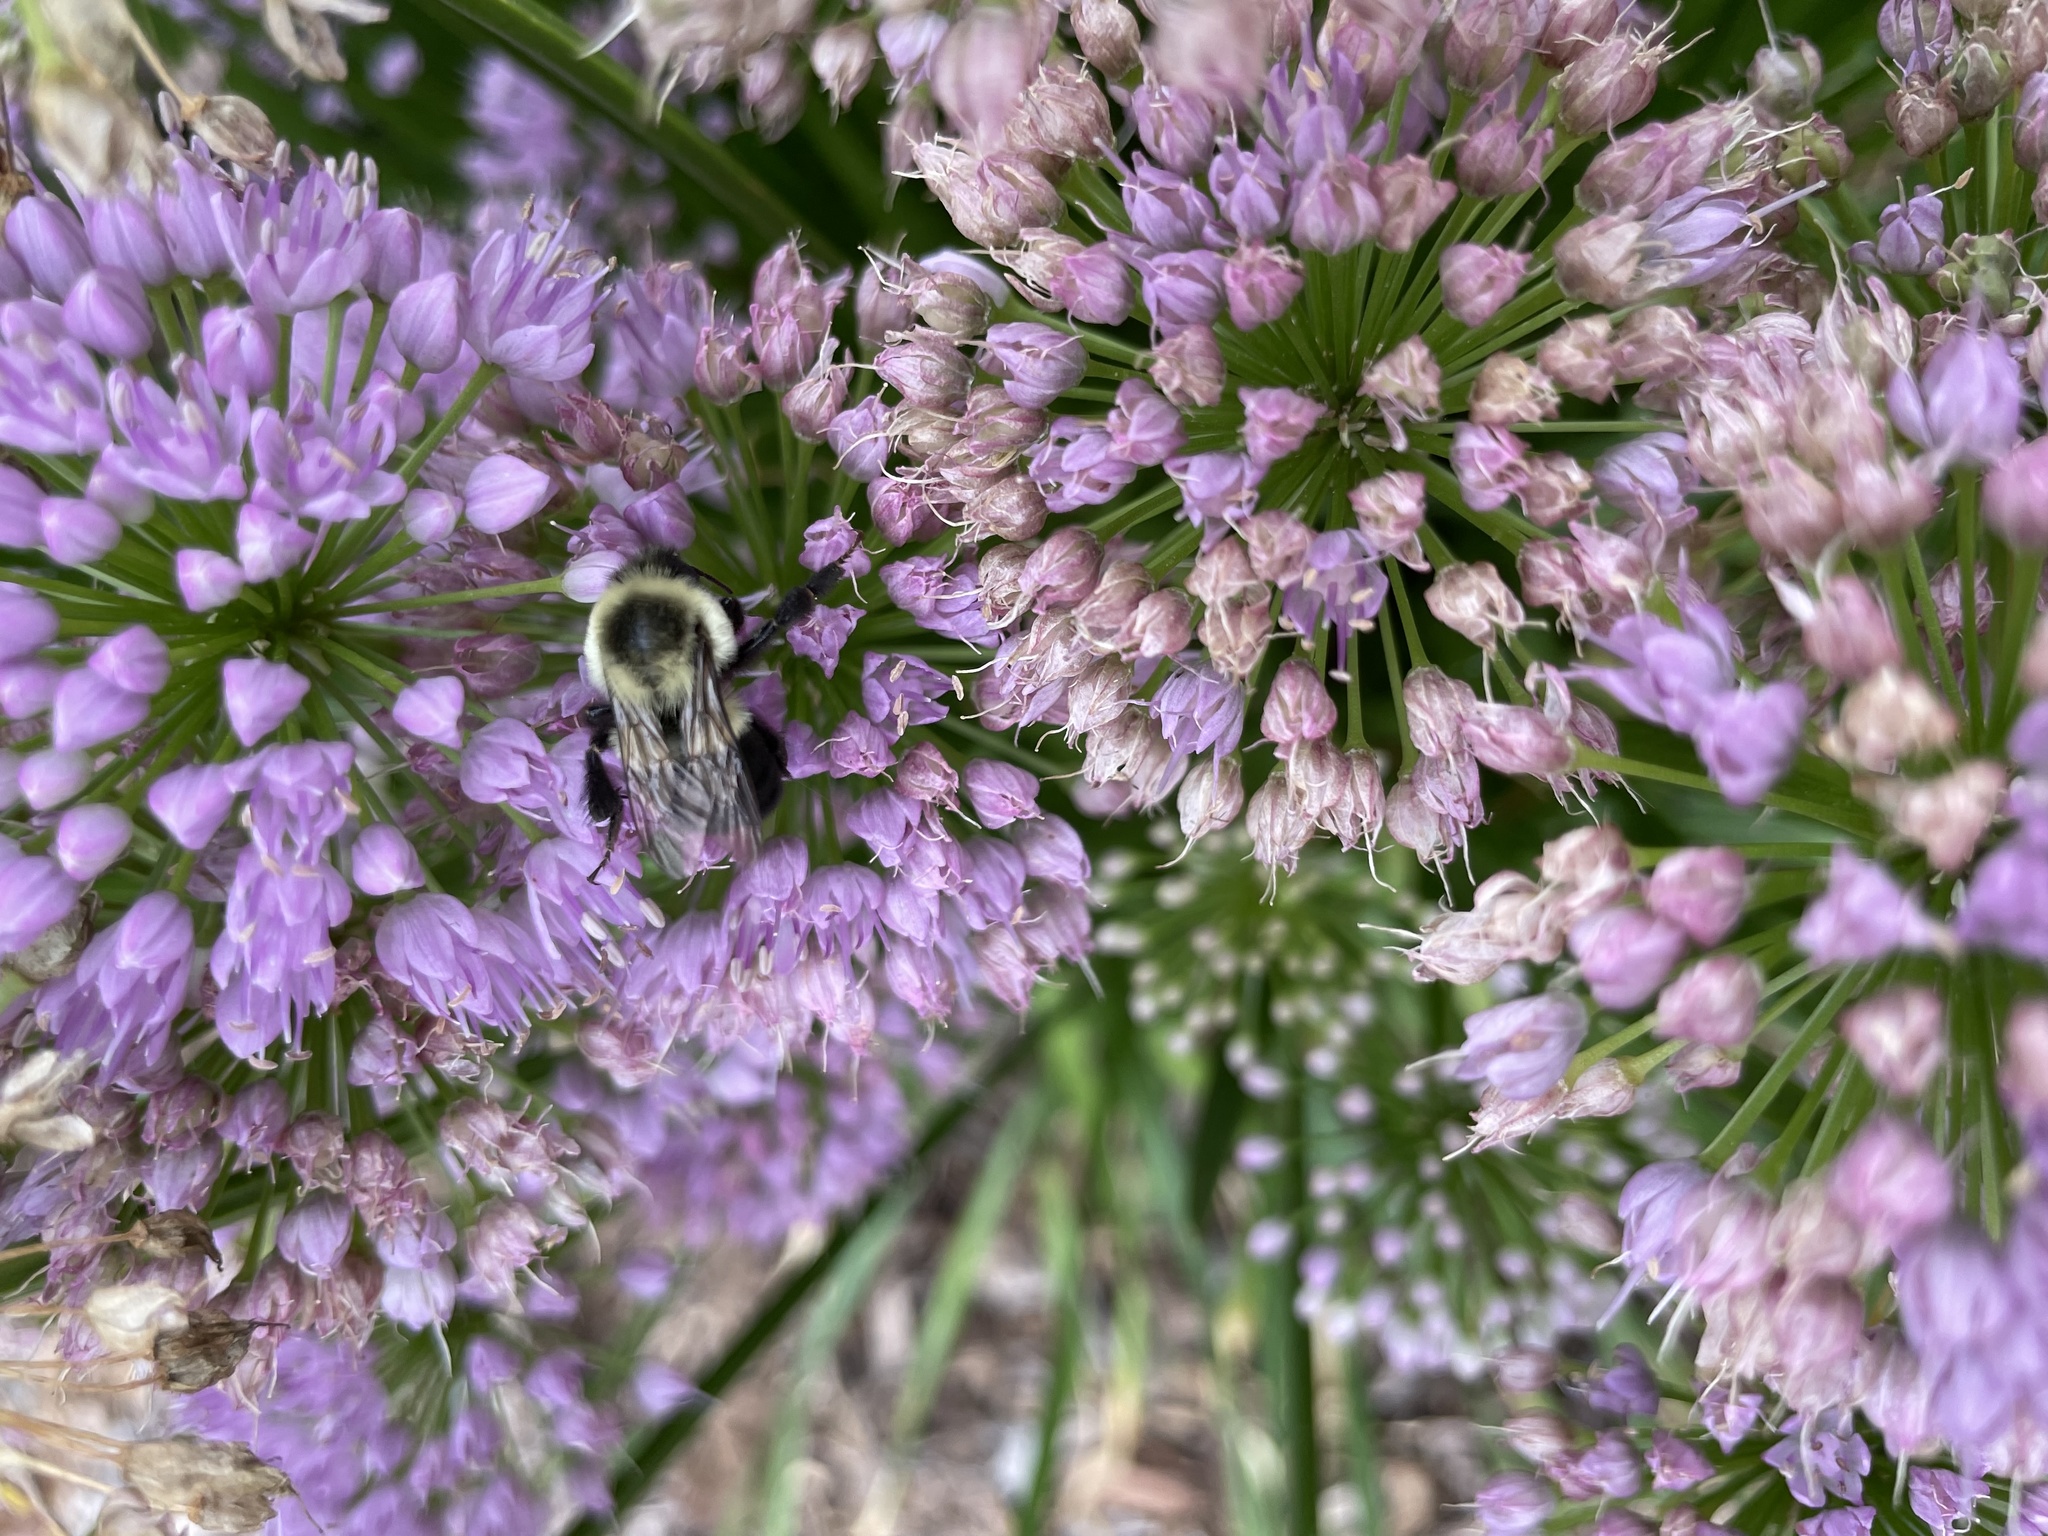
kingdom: Animalia
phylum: Arthropoda
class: Insecta
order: Hymenoptera
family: Apidae
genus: Bombus
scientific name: Bombus impatiens
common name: Common eastern bumble bee
